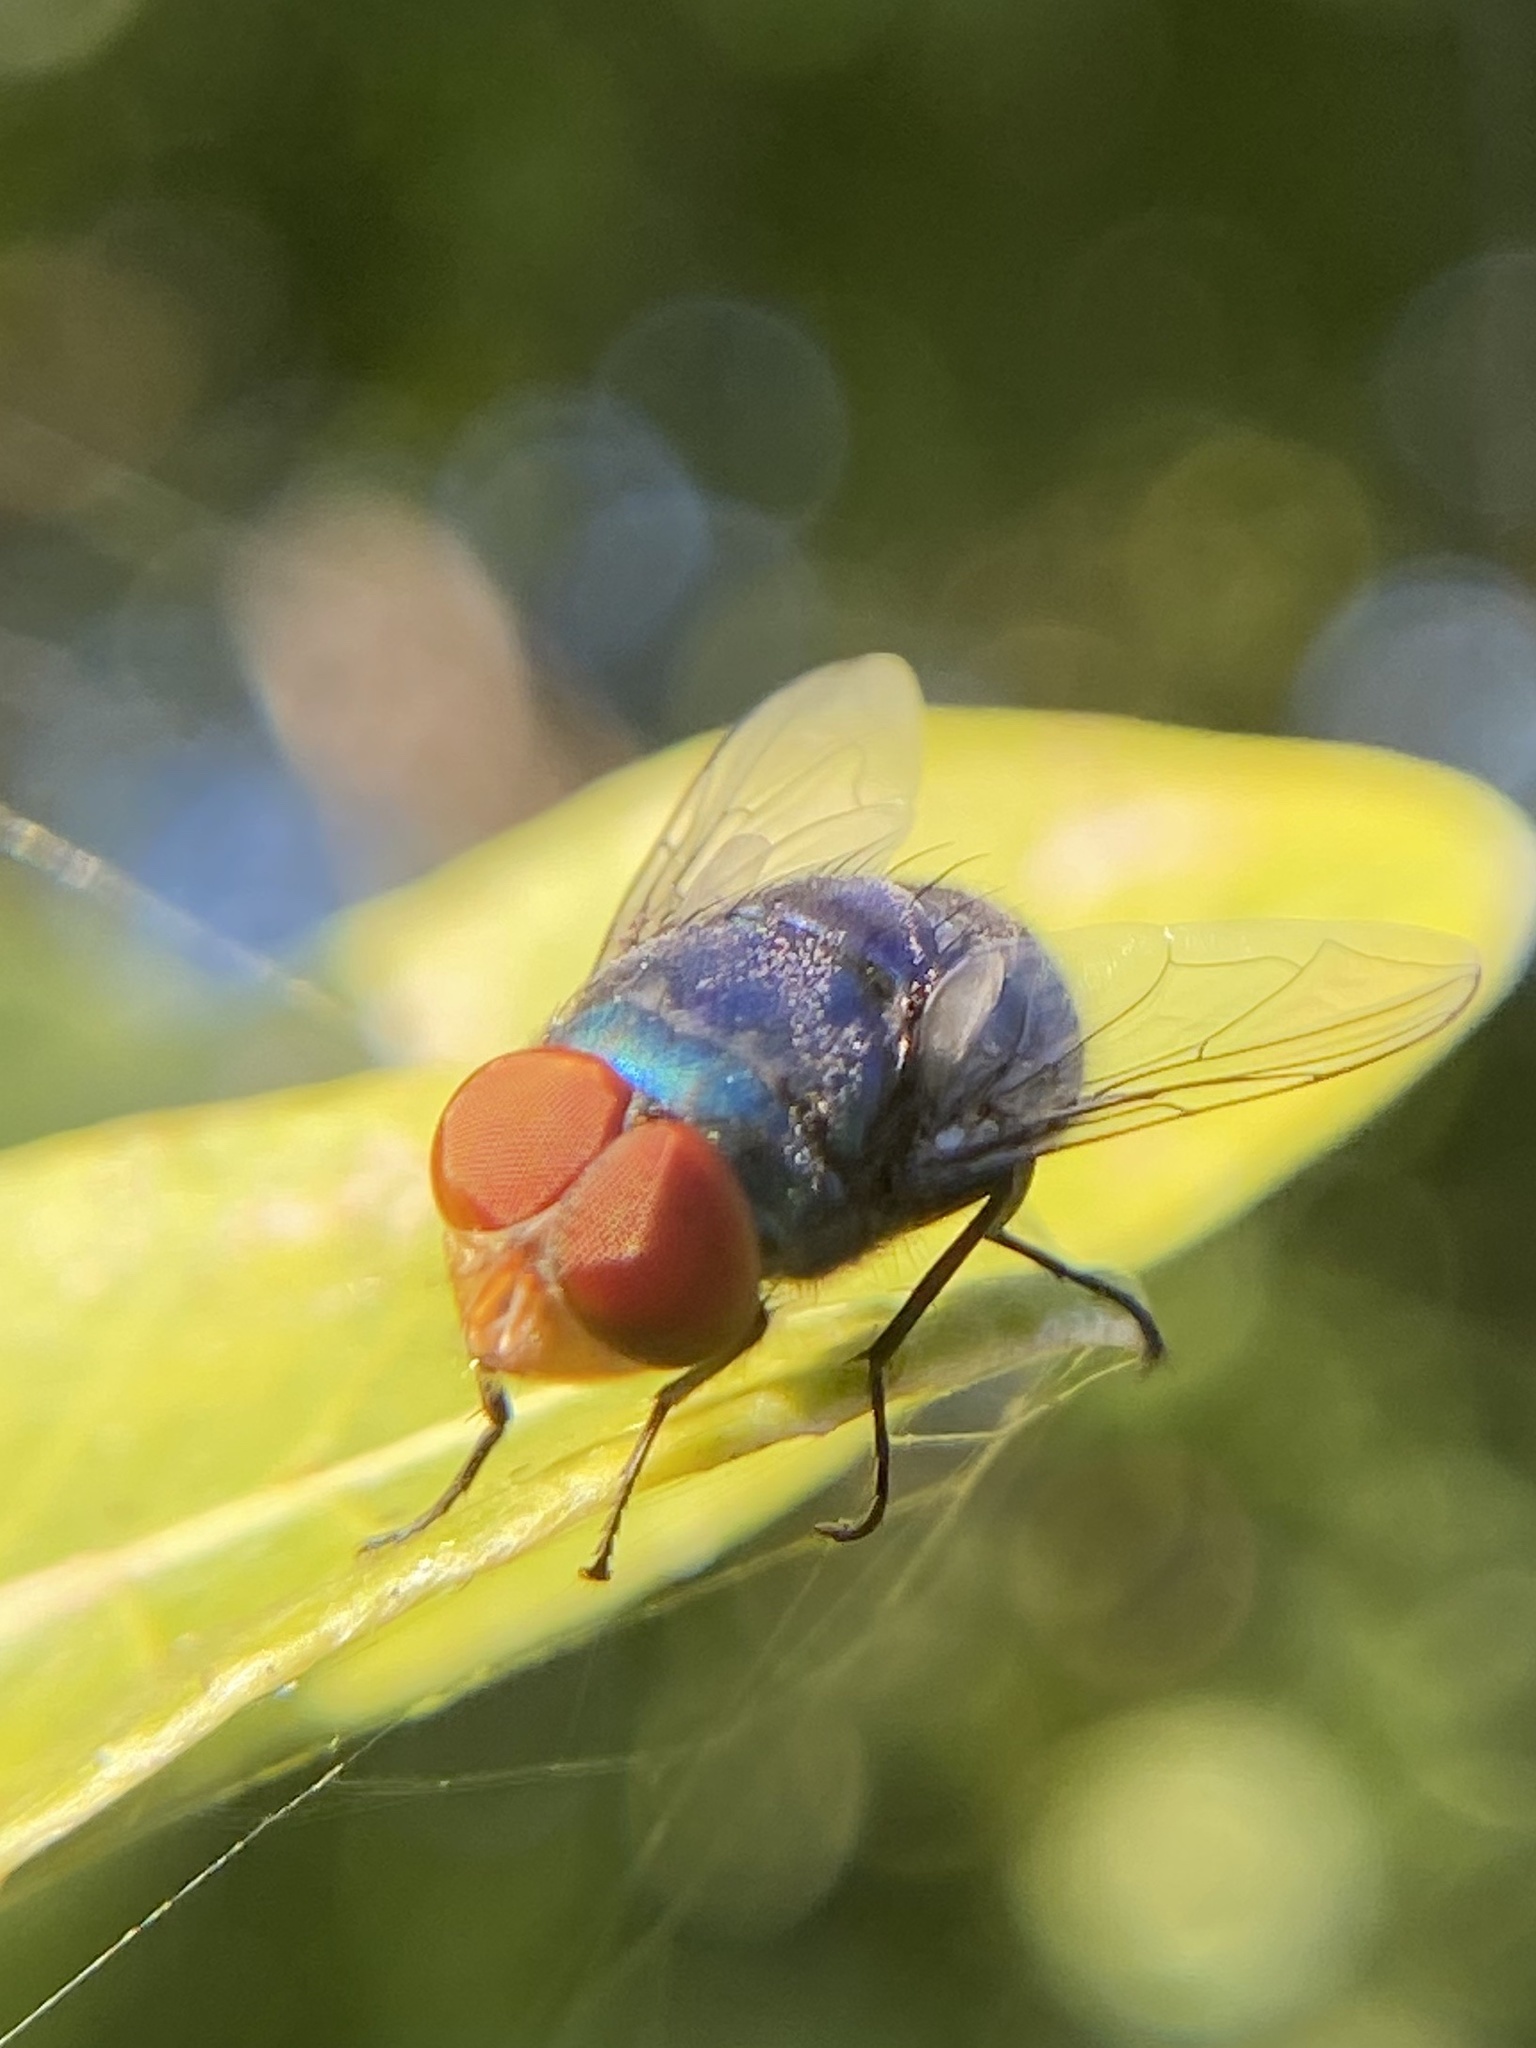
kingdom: Animalia
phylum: Arthropoda
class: Insecta
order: Diptera
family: Calliphoridae
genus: Chrysomya
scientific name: Chrysomya megacephala
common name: Blow fly
